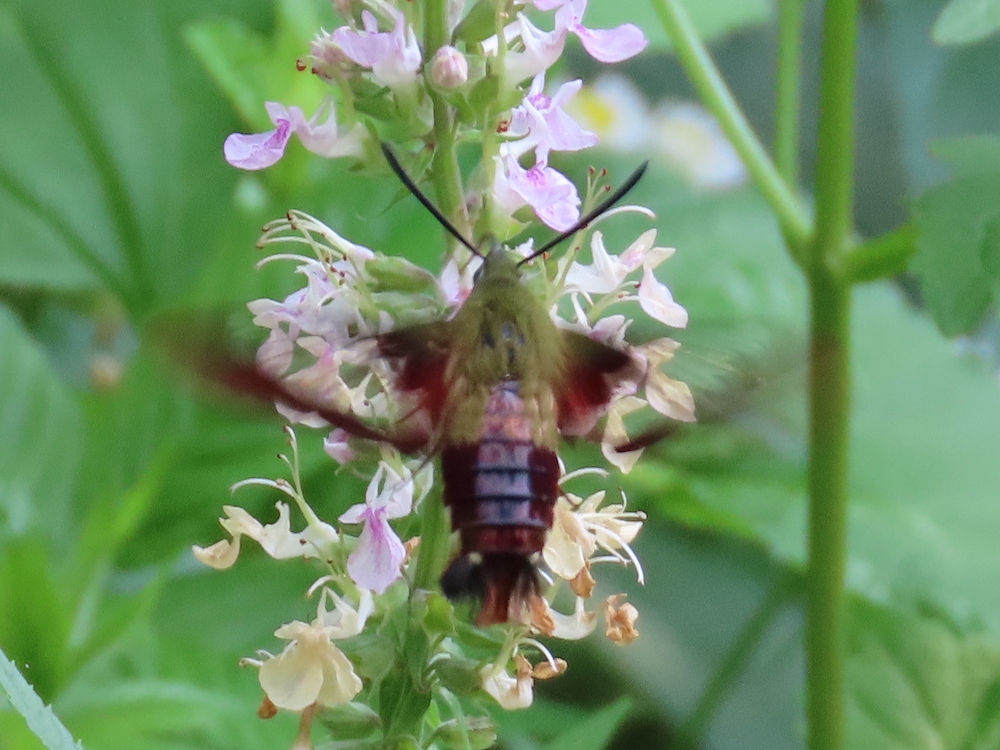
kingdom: Animalia
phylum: Arthropoda
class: Insecta
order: Lepidoptera
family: Sphingidae
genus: Hemaris
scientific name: Hemaris thysbe
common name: Common clear-wing
